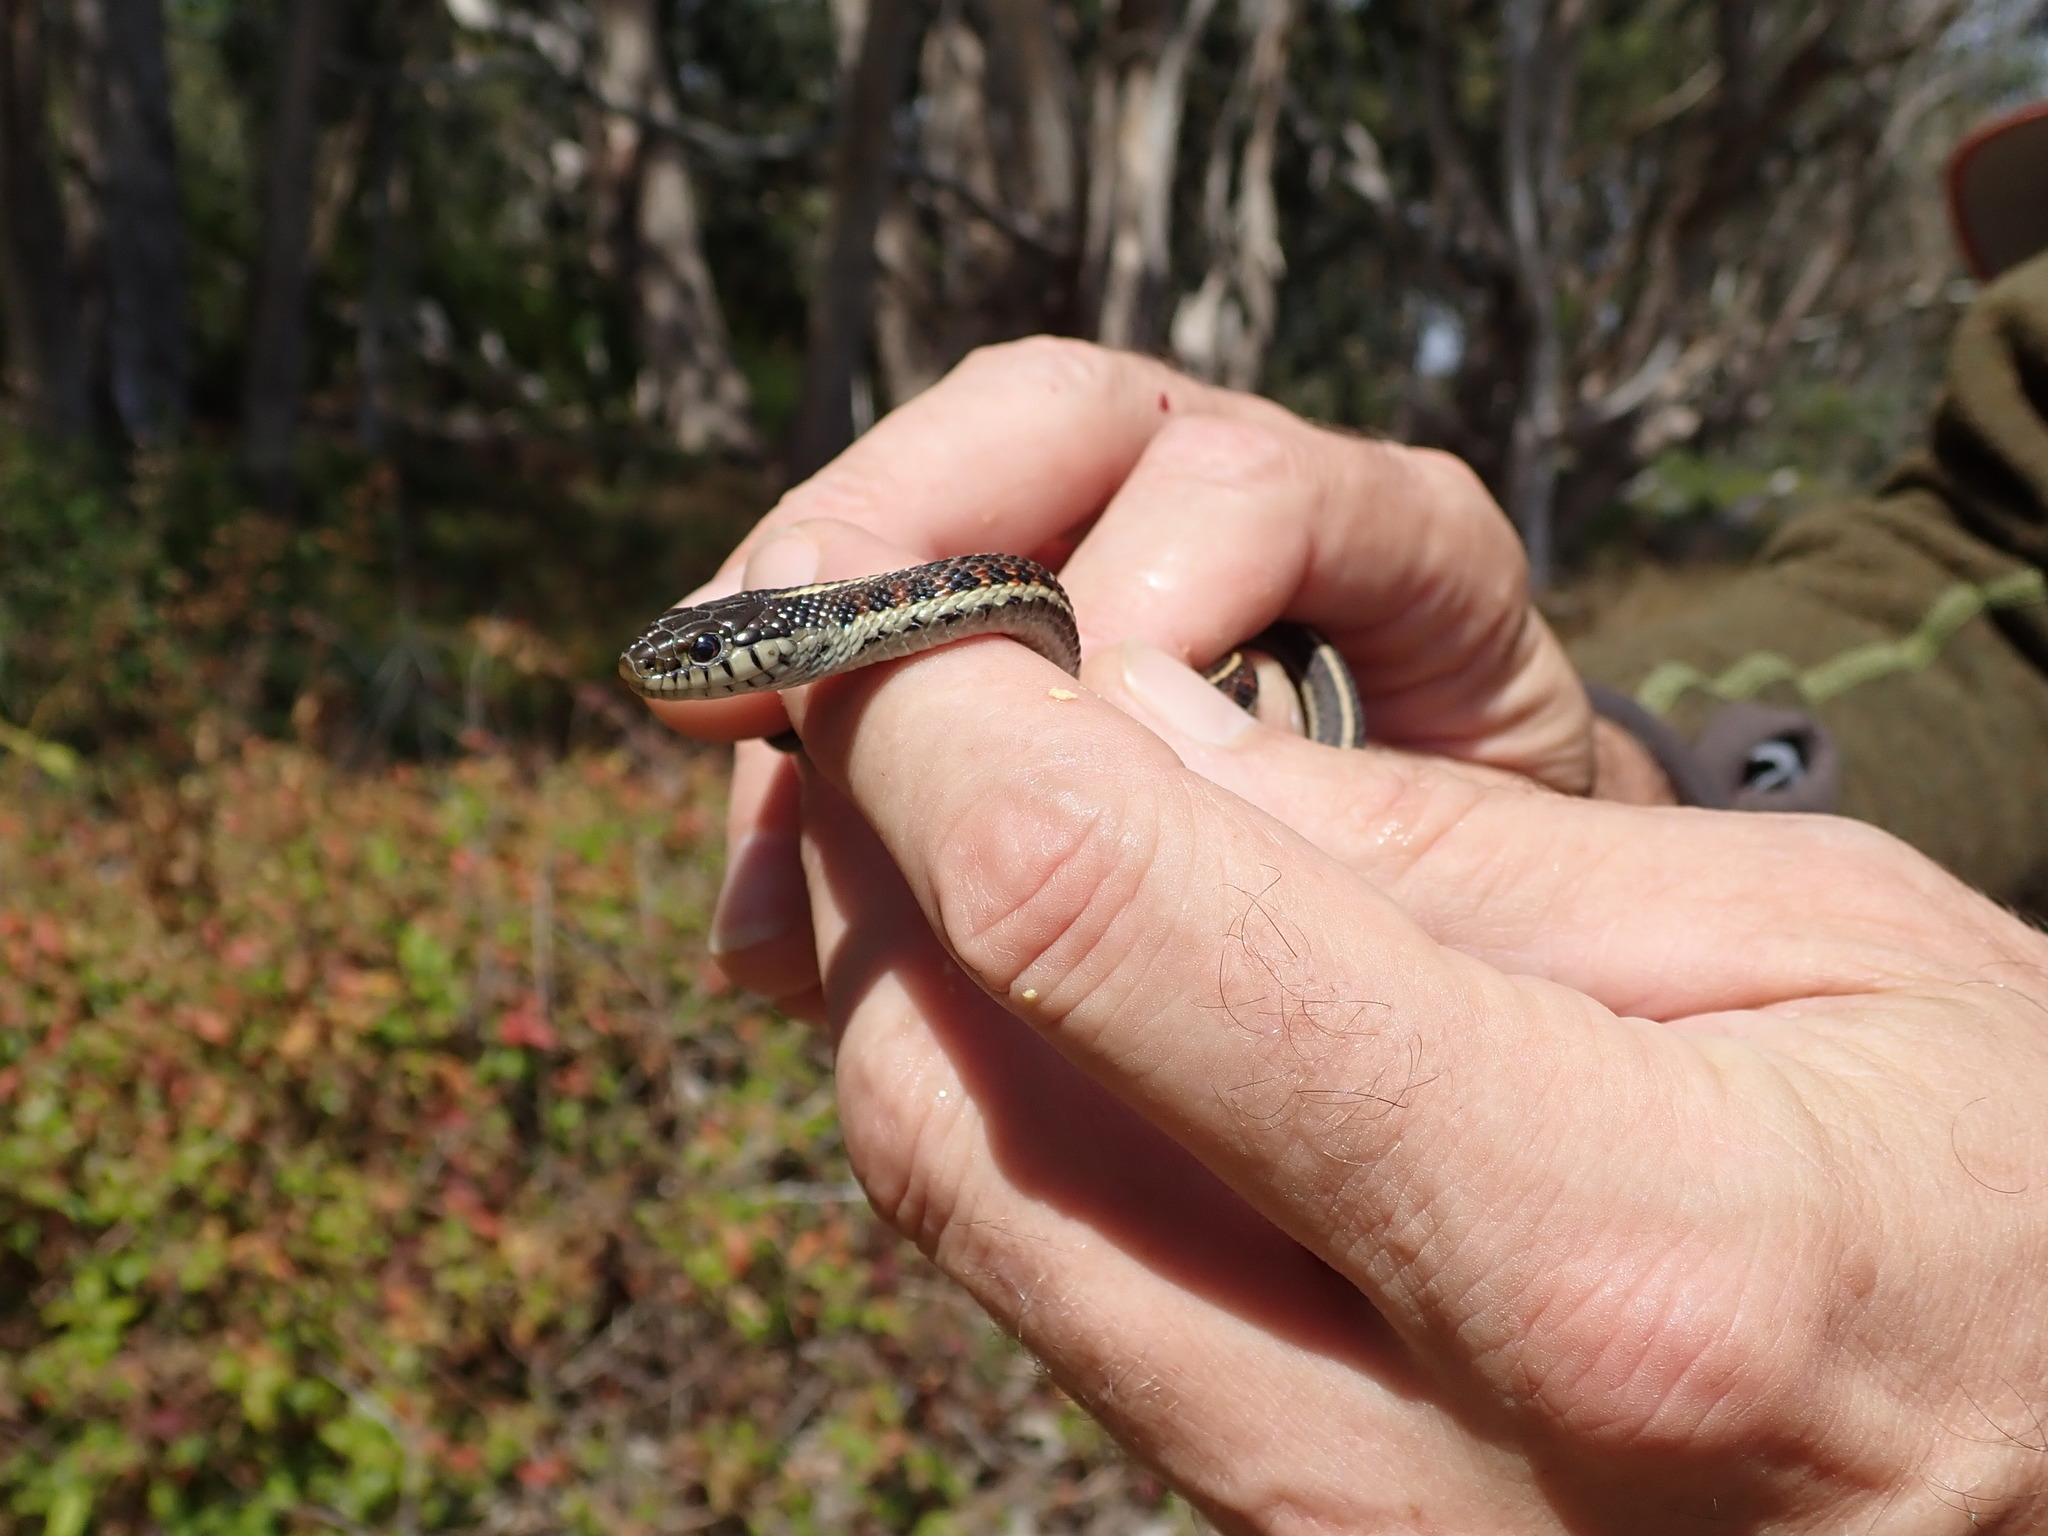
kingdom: Animalia
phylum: Chordata
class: Squamata
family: Colubridae
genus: Thamnophis
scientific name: Thamnophis elegans
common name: Western terrestrial garter snake
